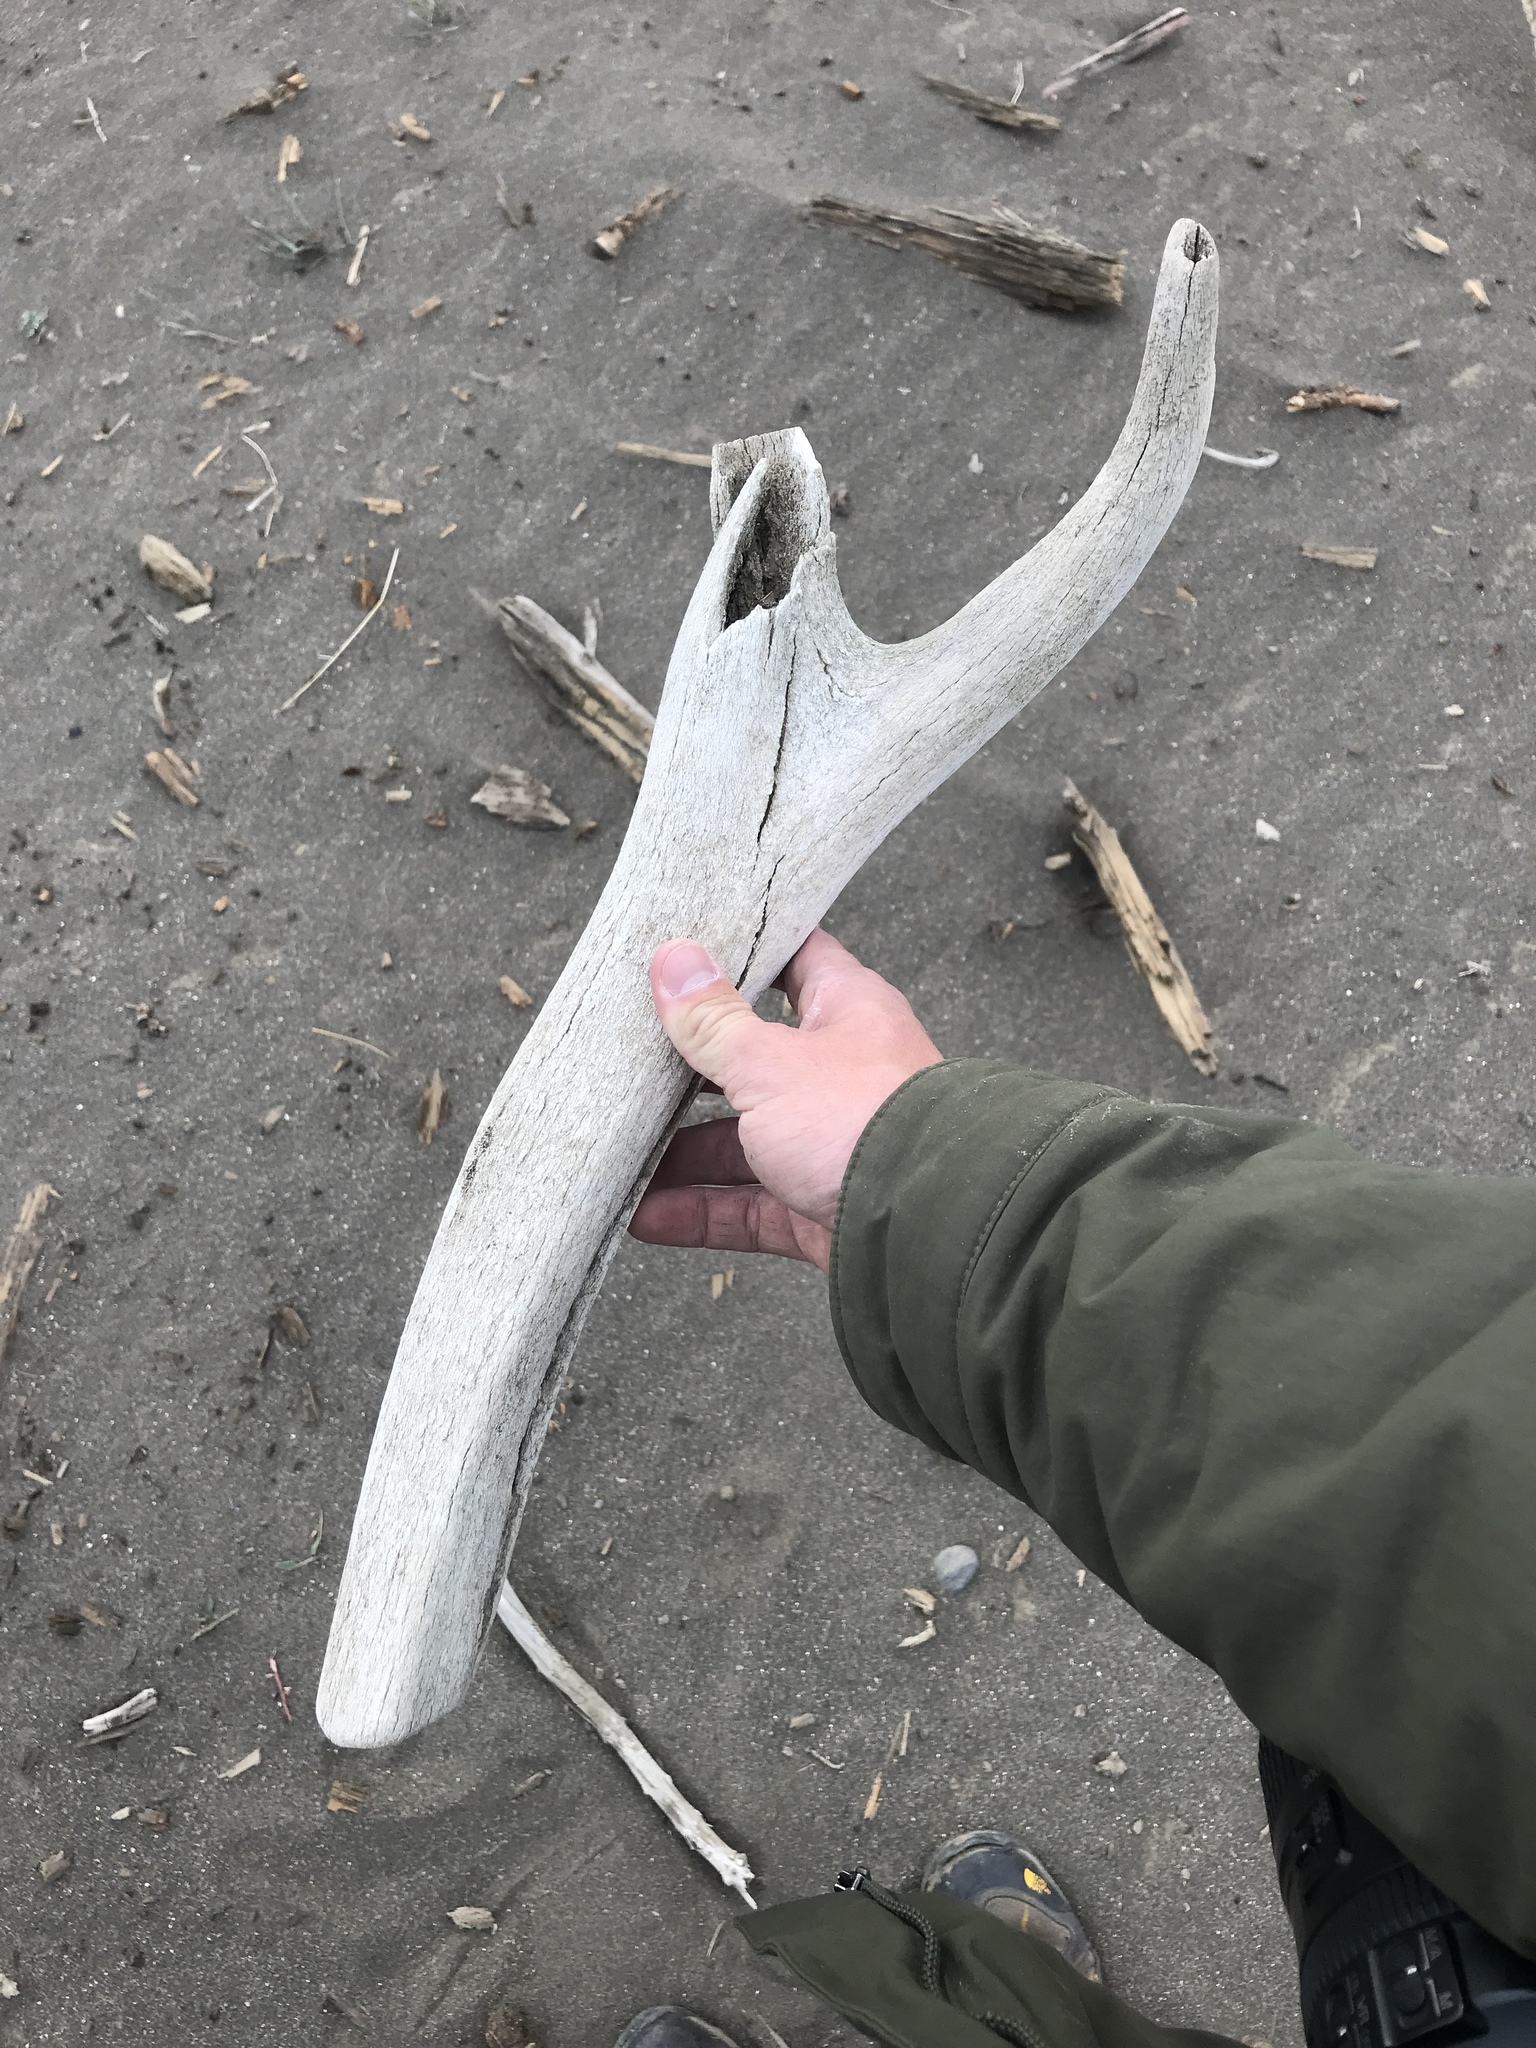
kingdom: Animalia
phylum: Chordata
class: Mammalia
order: Artiodactyla
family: Cervidae
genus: Cervus
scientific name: Cervus elaphus
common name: Red deer
